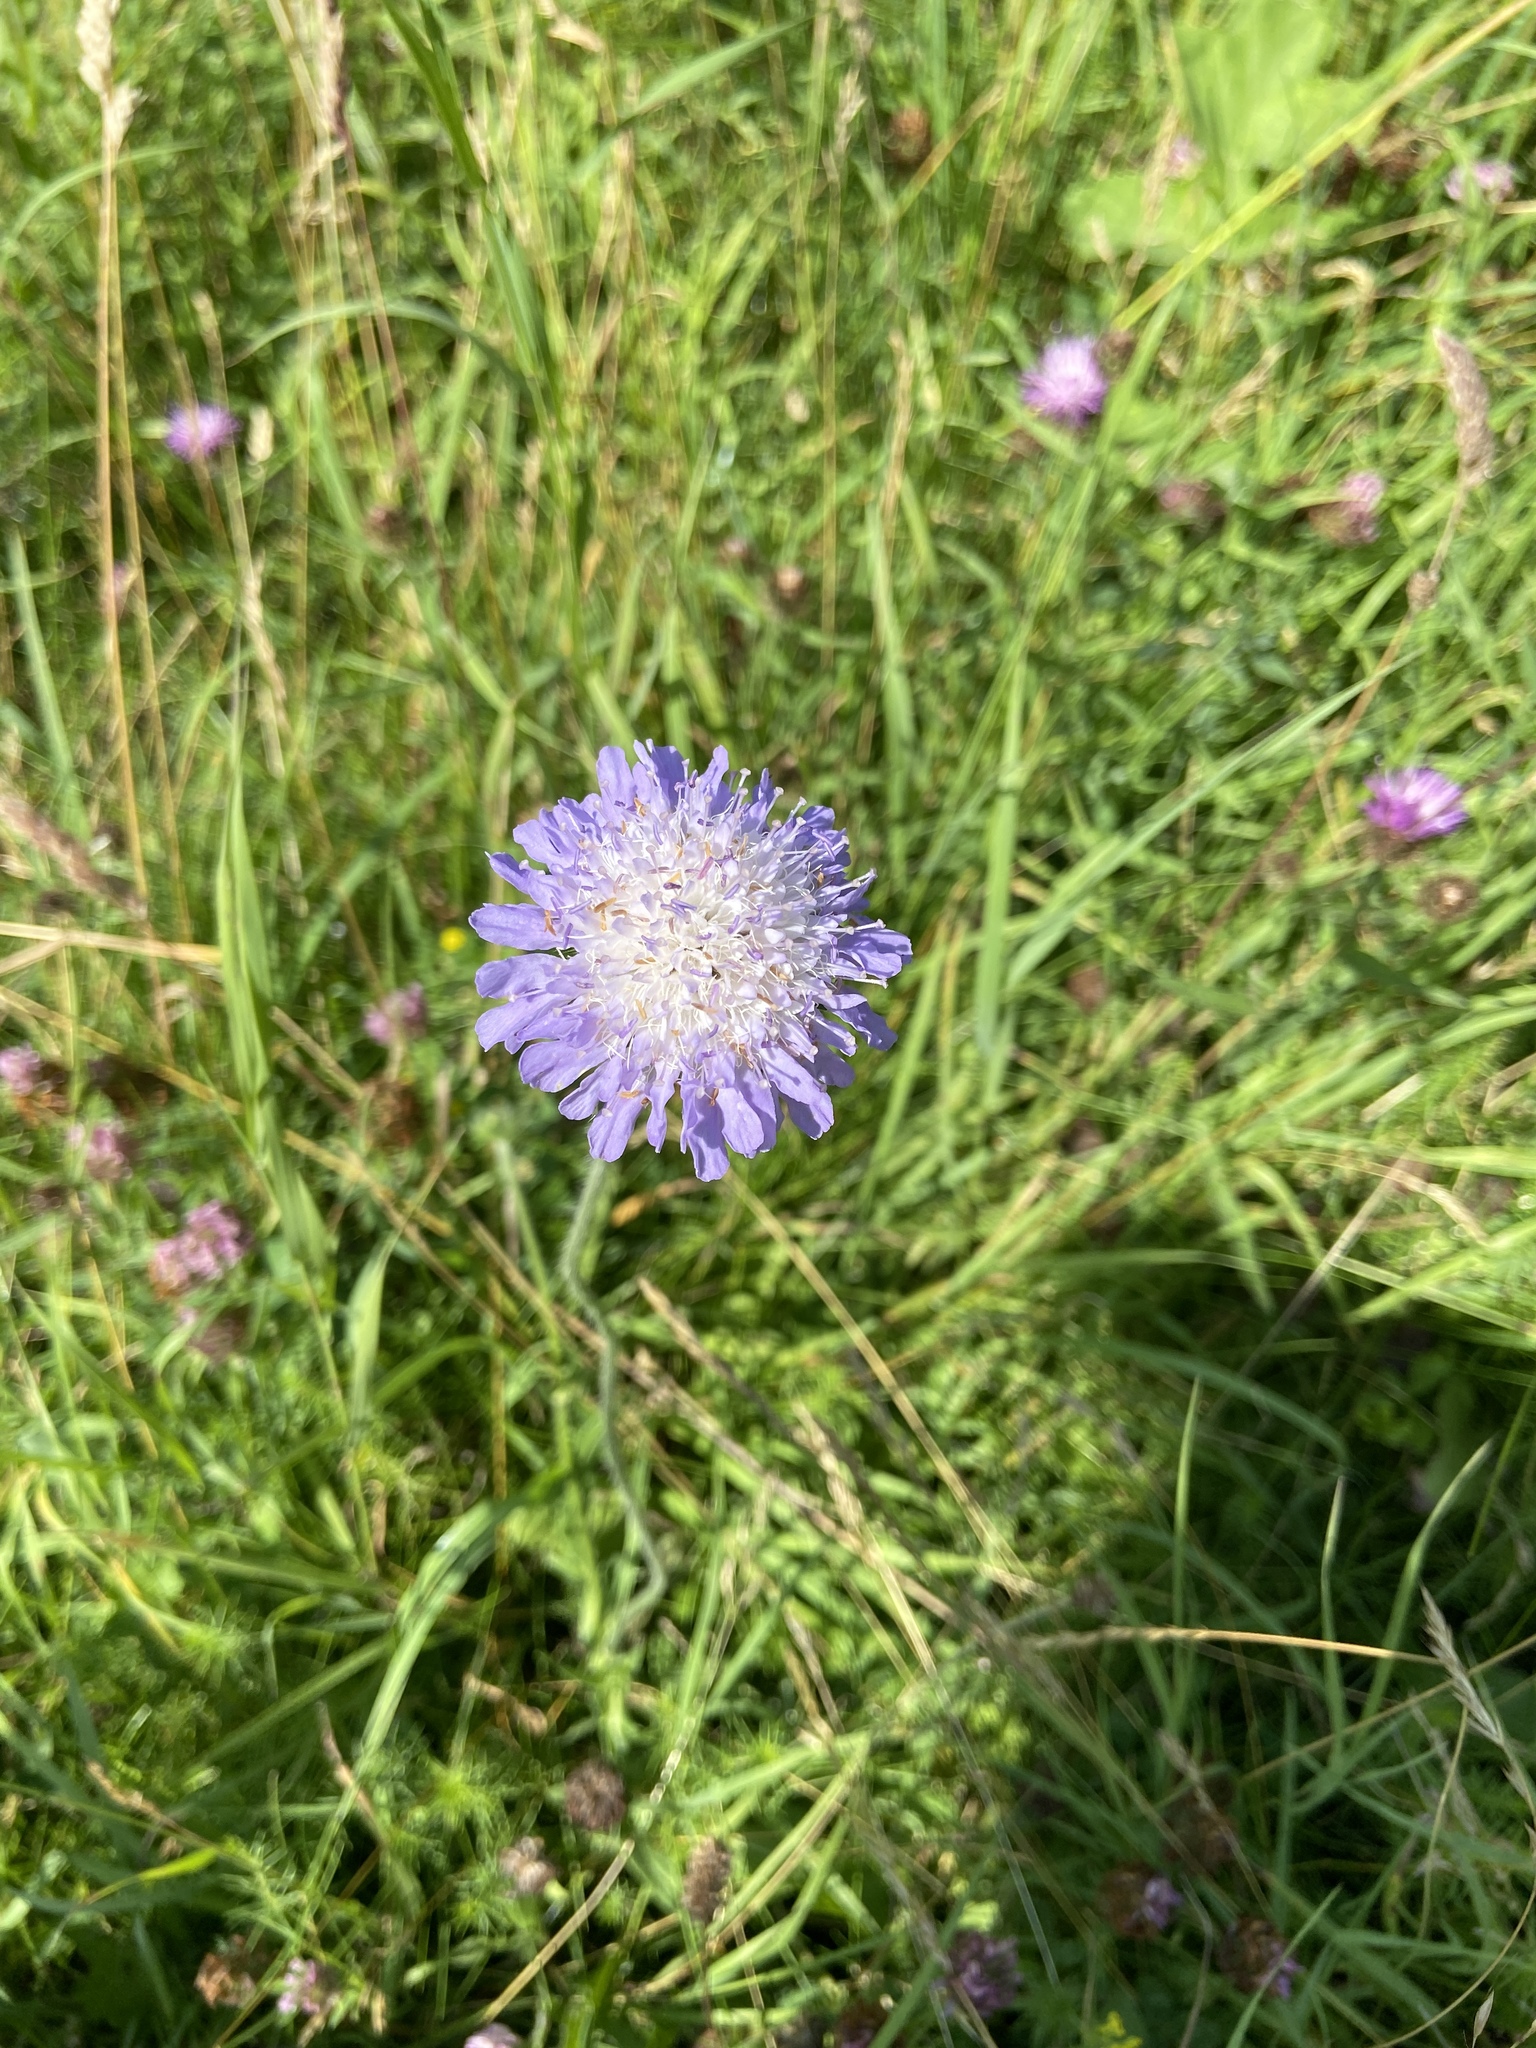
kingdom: Plantae
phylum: Tracheophyta
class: Magnoliopsida
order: Dipsacales
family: Caprifoliaceae
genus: Knautia
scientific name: Knautia arvensis
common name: Field scabiosa
